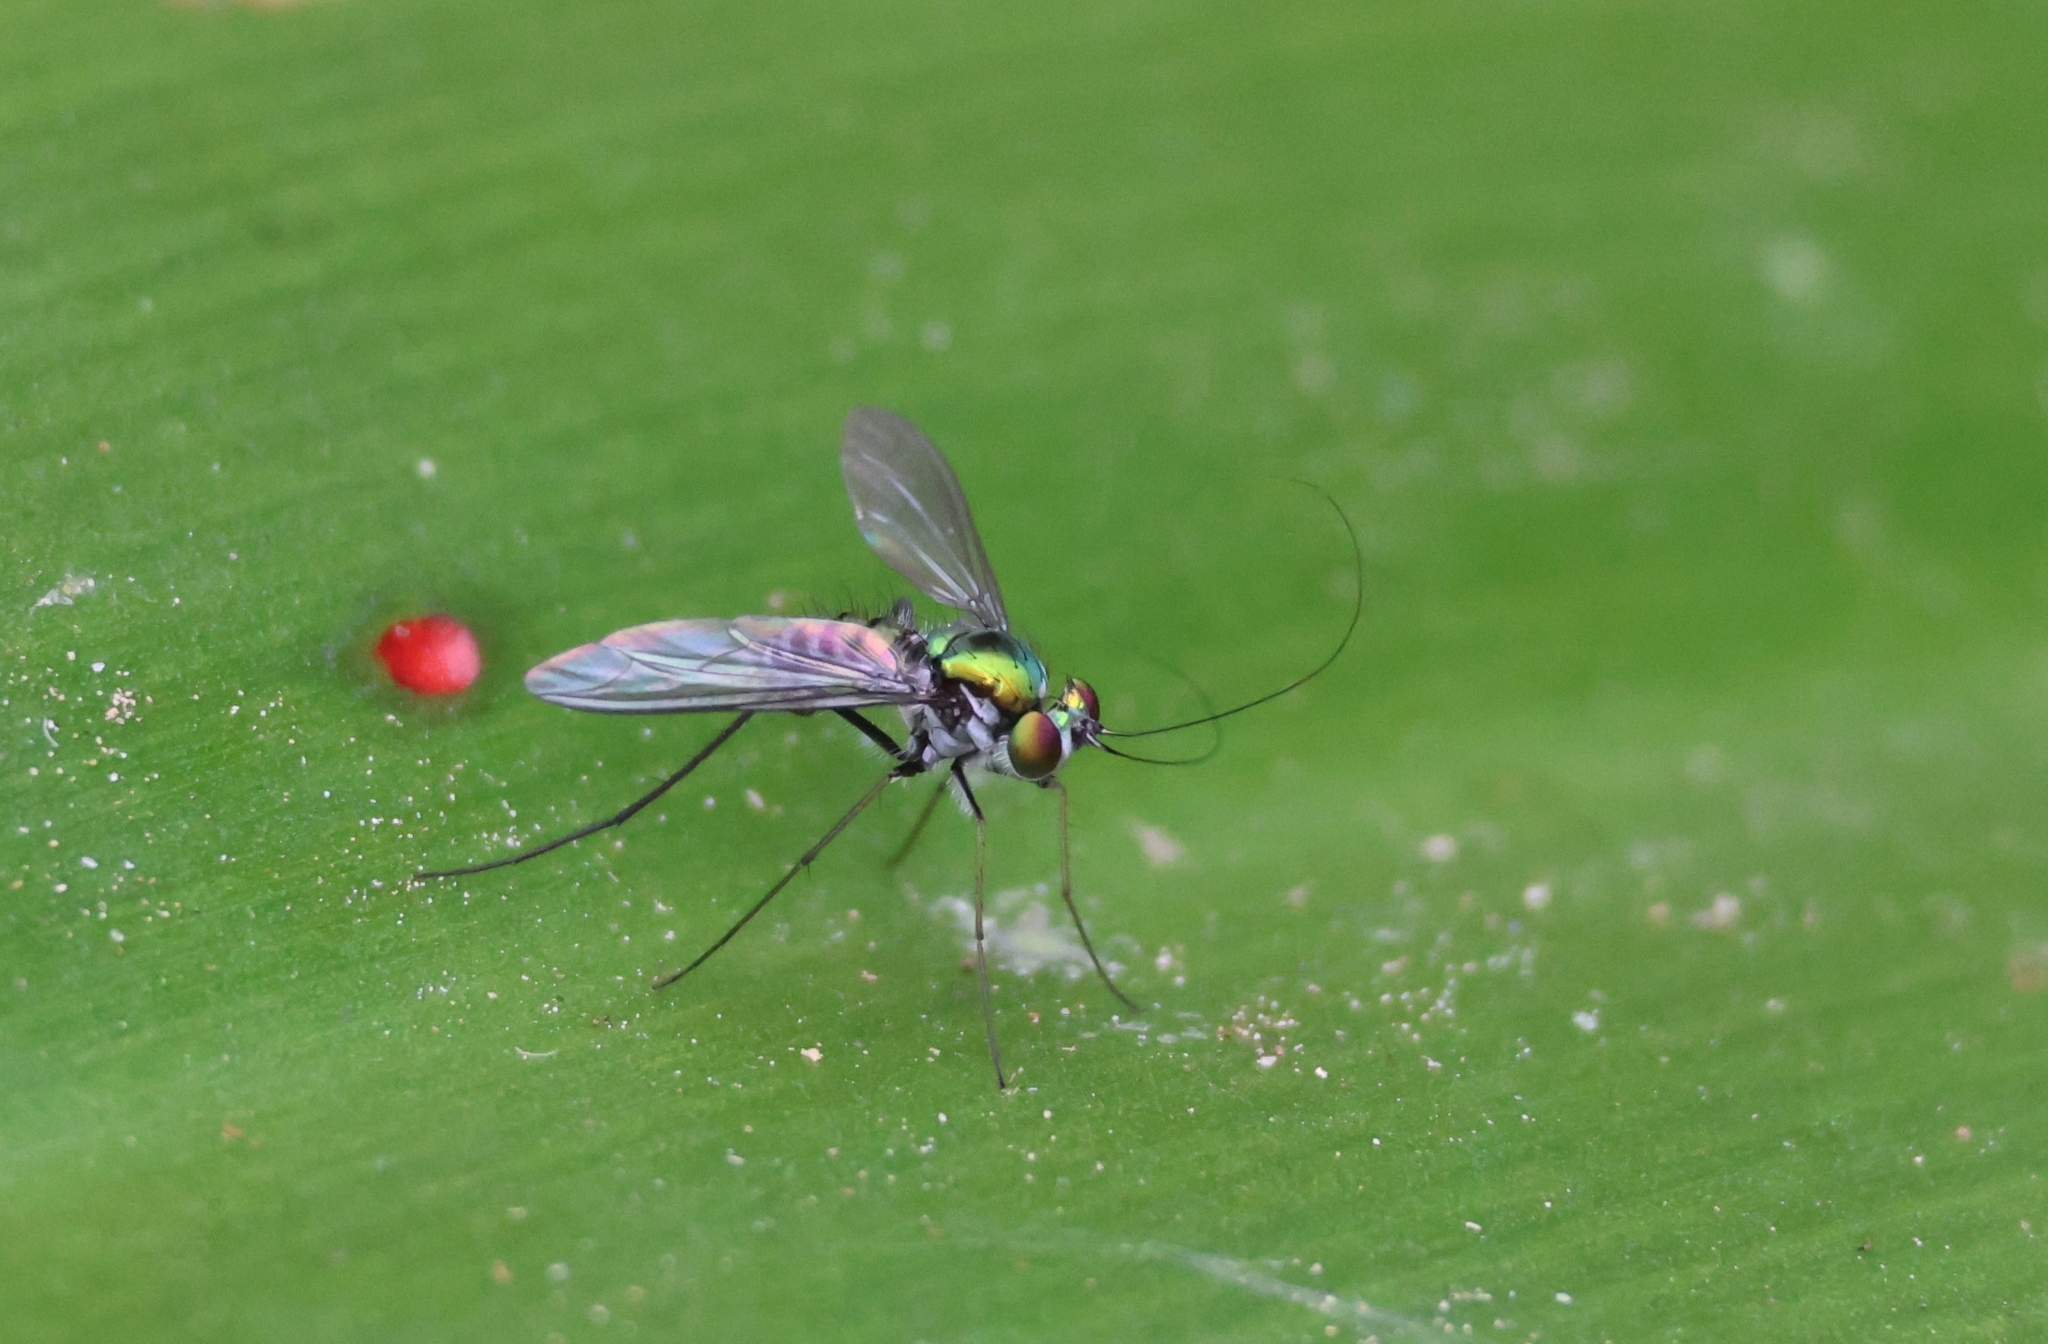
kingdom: Animalia
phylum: Arthropoda
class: Insecta
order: Diptera
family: Dolichopodidae
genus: Chrysosoma
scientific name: Chrysosoma crinicorne
